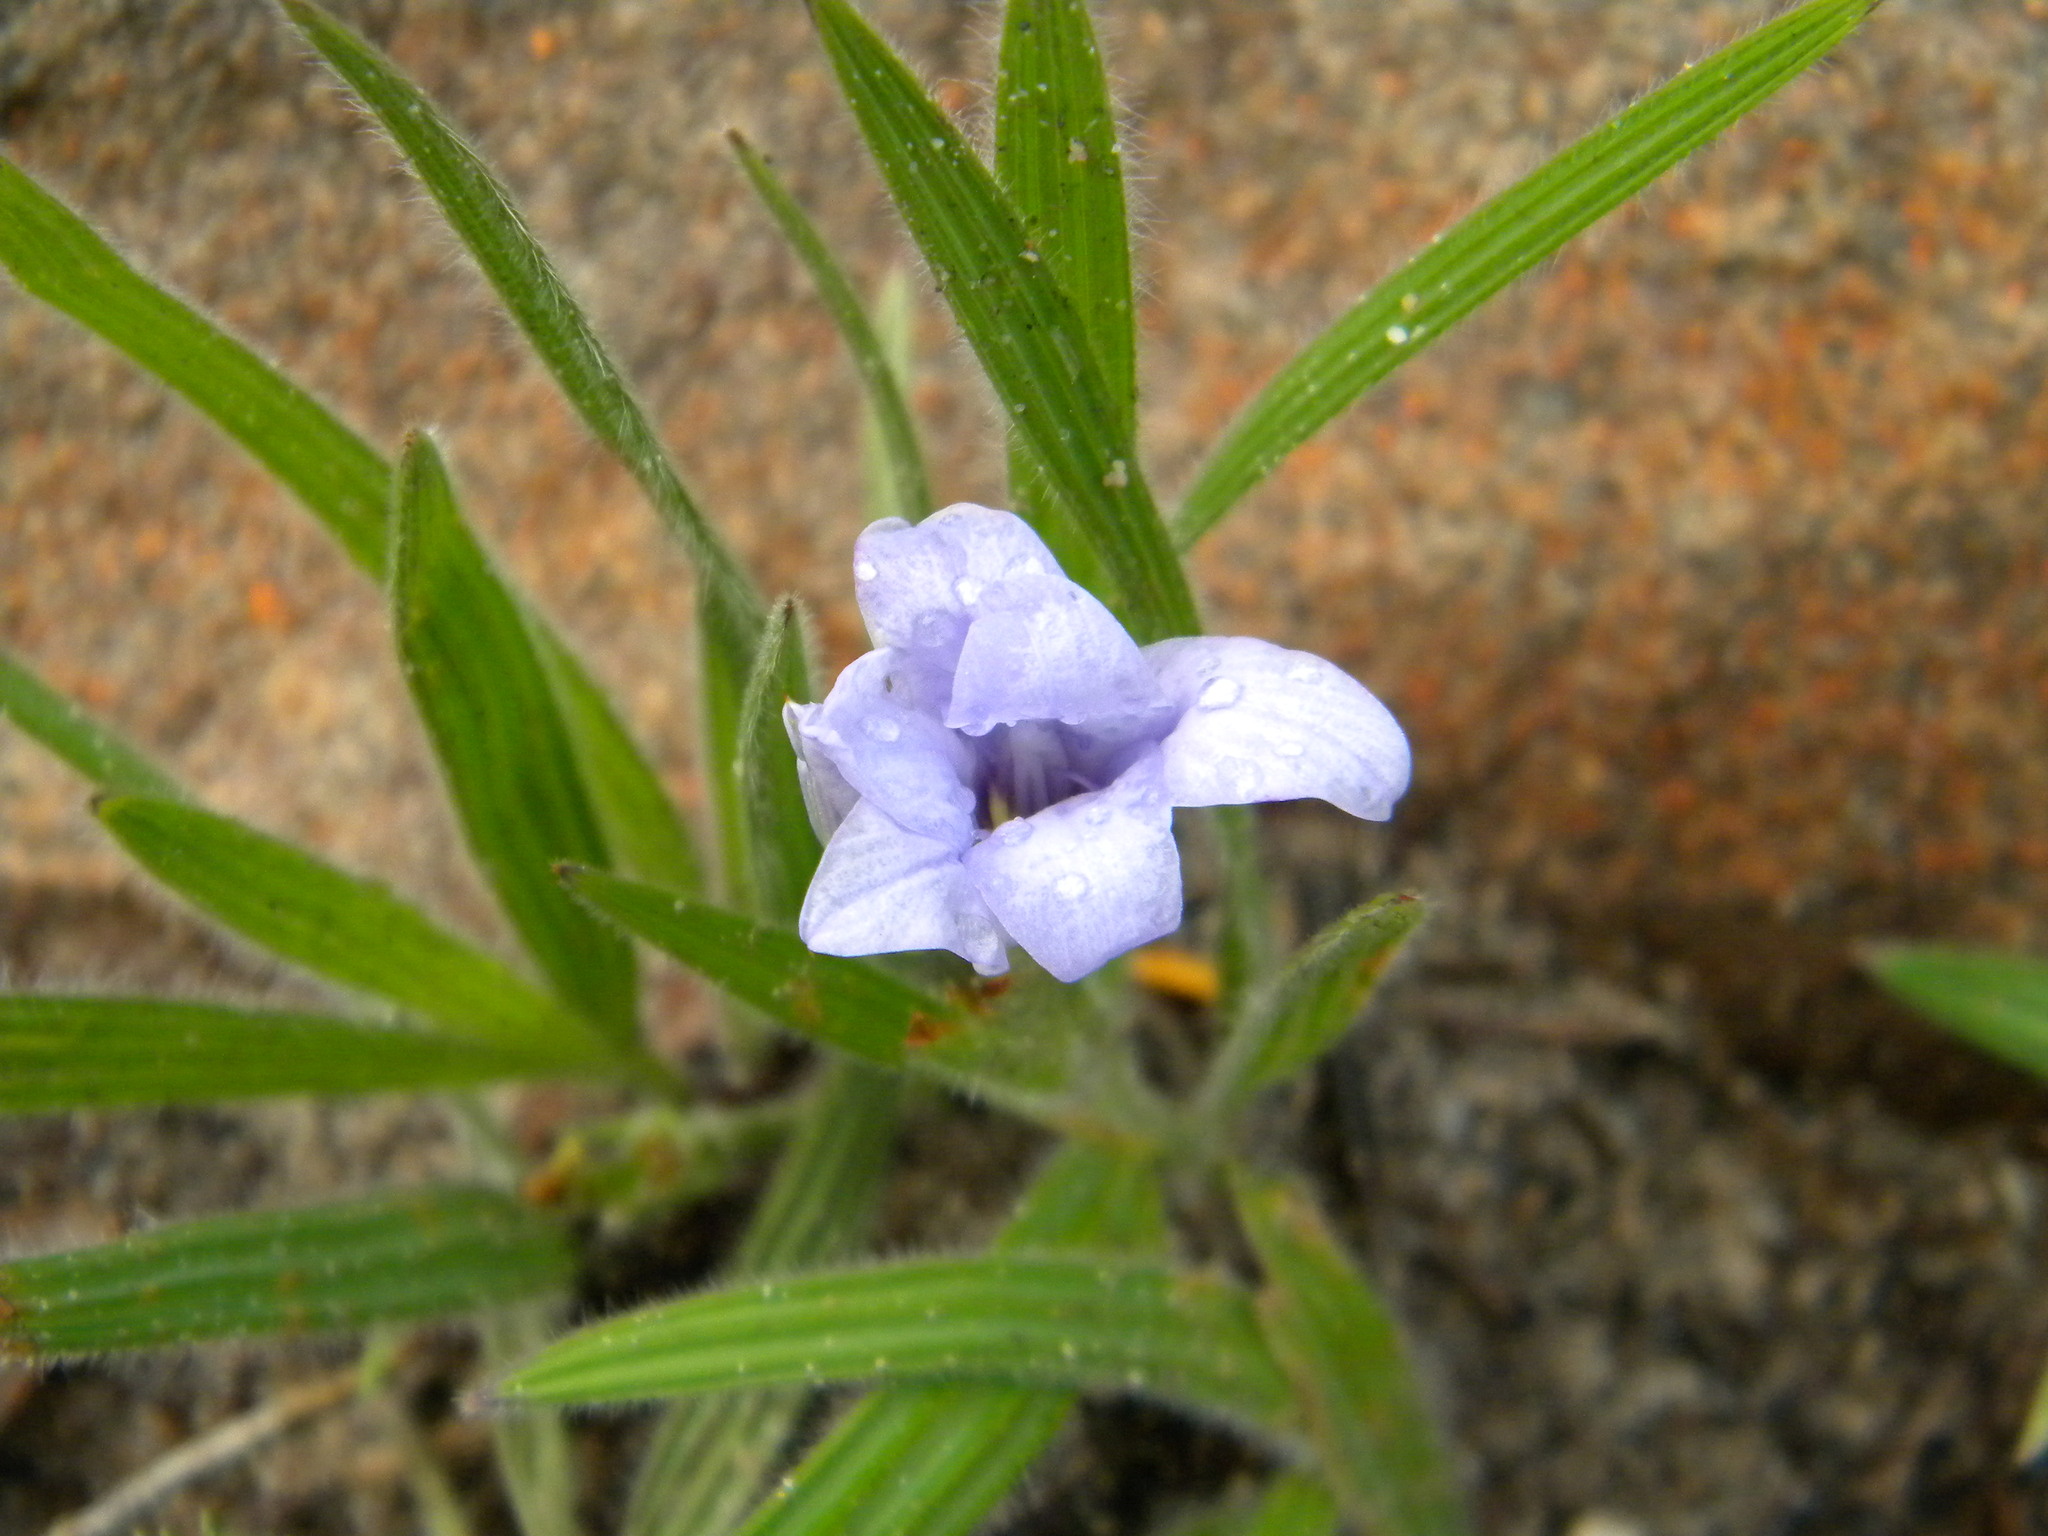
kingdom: Plantae
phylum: Tracheophyta
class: Liliopsida
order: Asparagales
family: Iridaceae
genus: Babiana
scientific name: Babiana villosula
